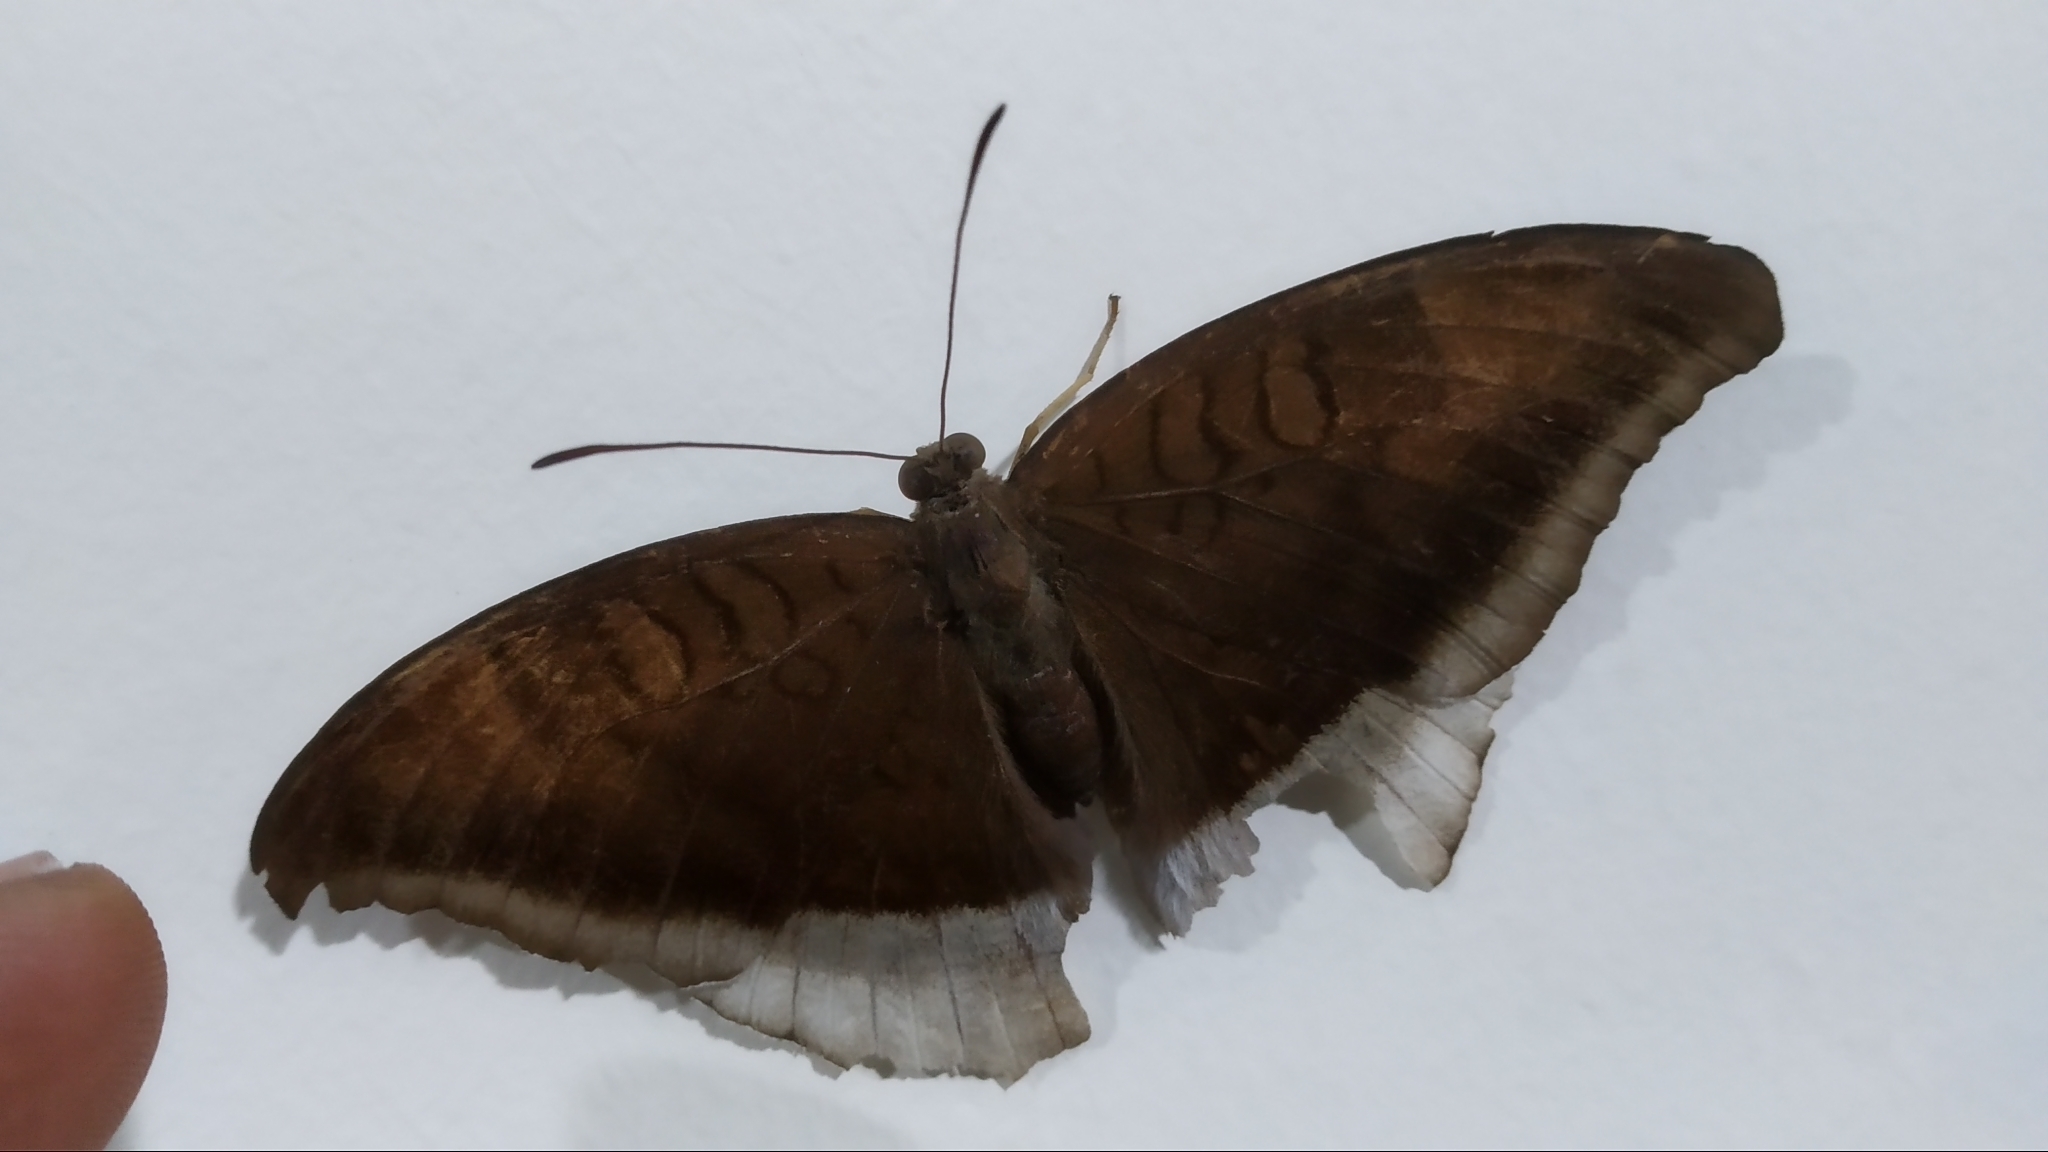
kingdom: Animalia
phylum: Arthropoda
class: Insecta
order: Lepidoptera
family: Nymphalidae
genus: Tanaecia
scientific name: Tanaecia lepidea
